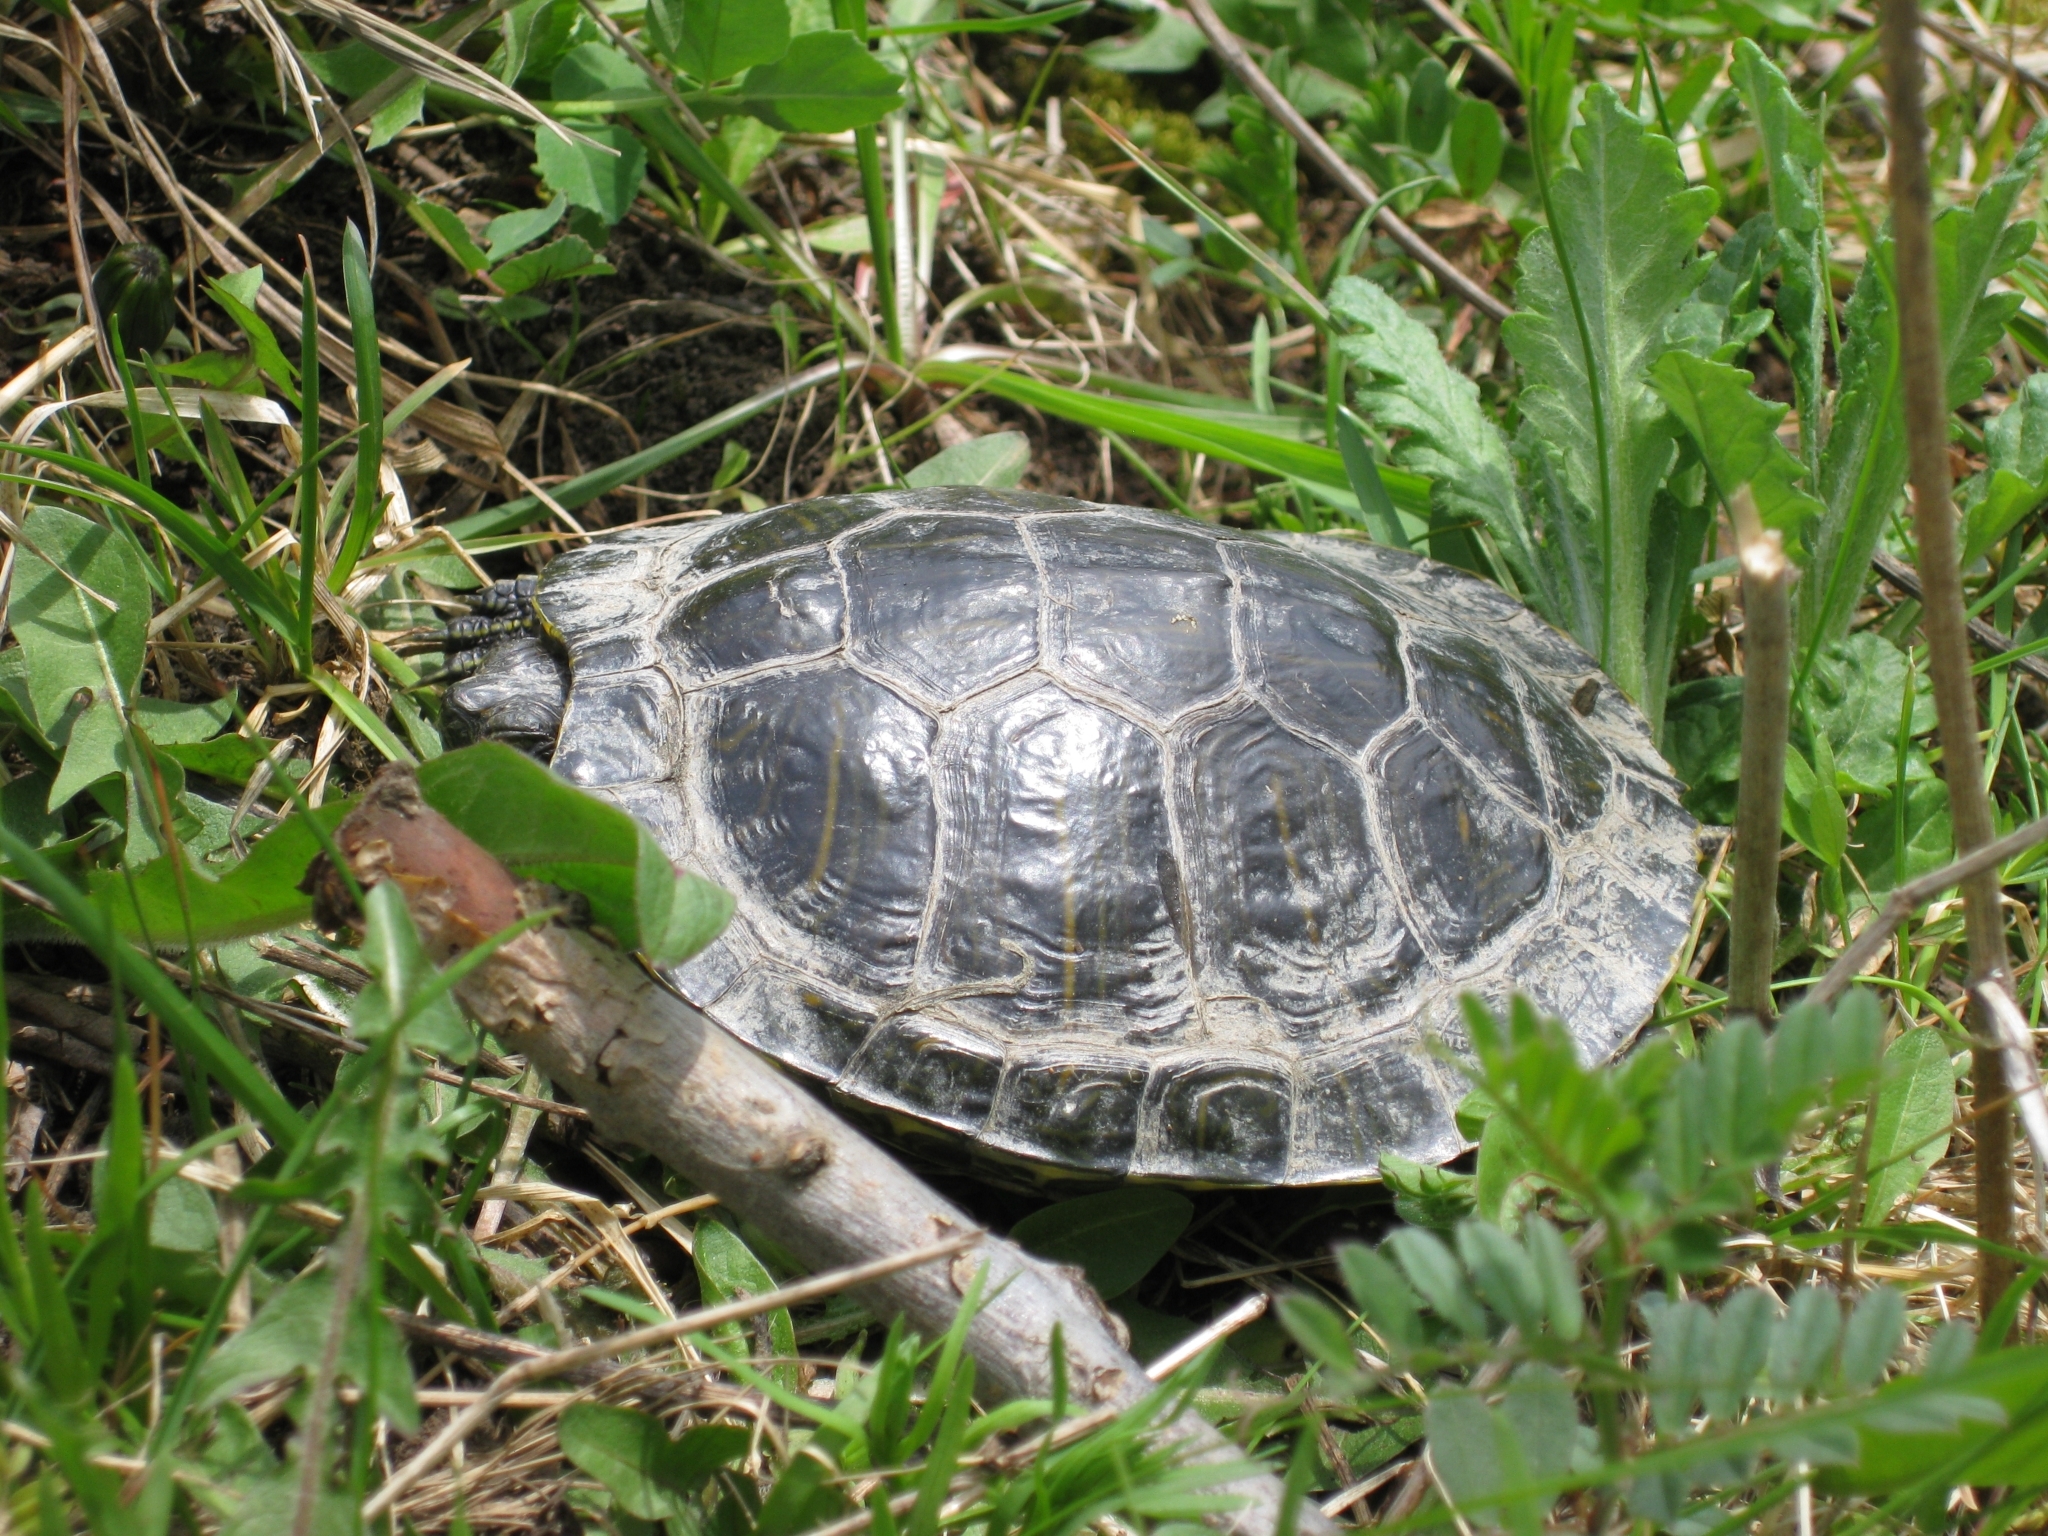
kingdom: Animalia
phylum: Chordata
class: Testudines
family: Emydidae
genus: Trachemys
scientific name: Trachemys scripta
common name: Slider
